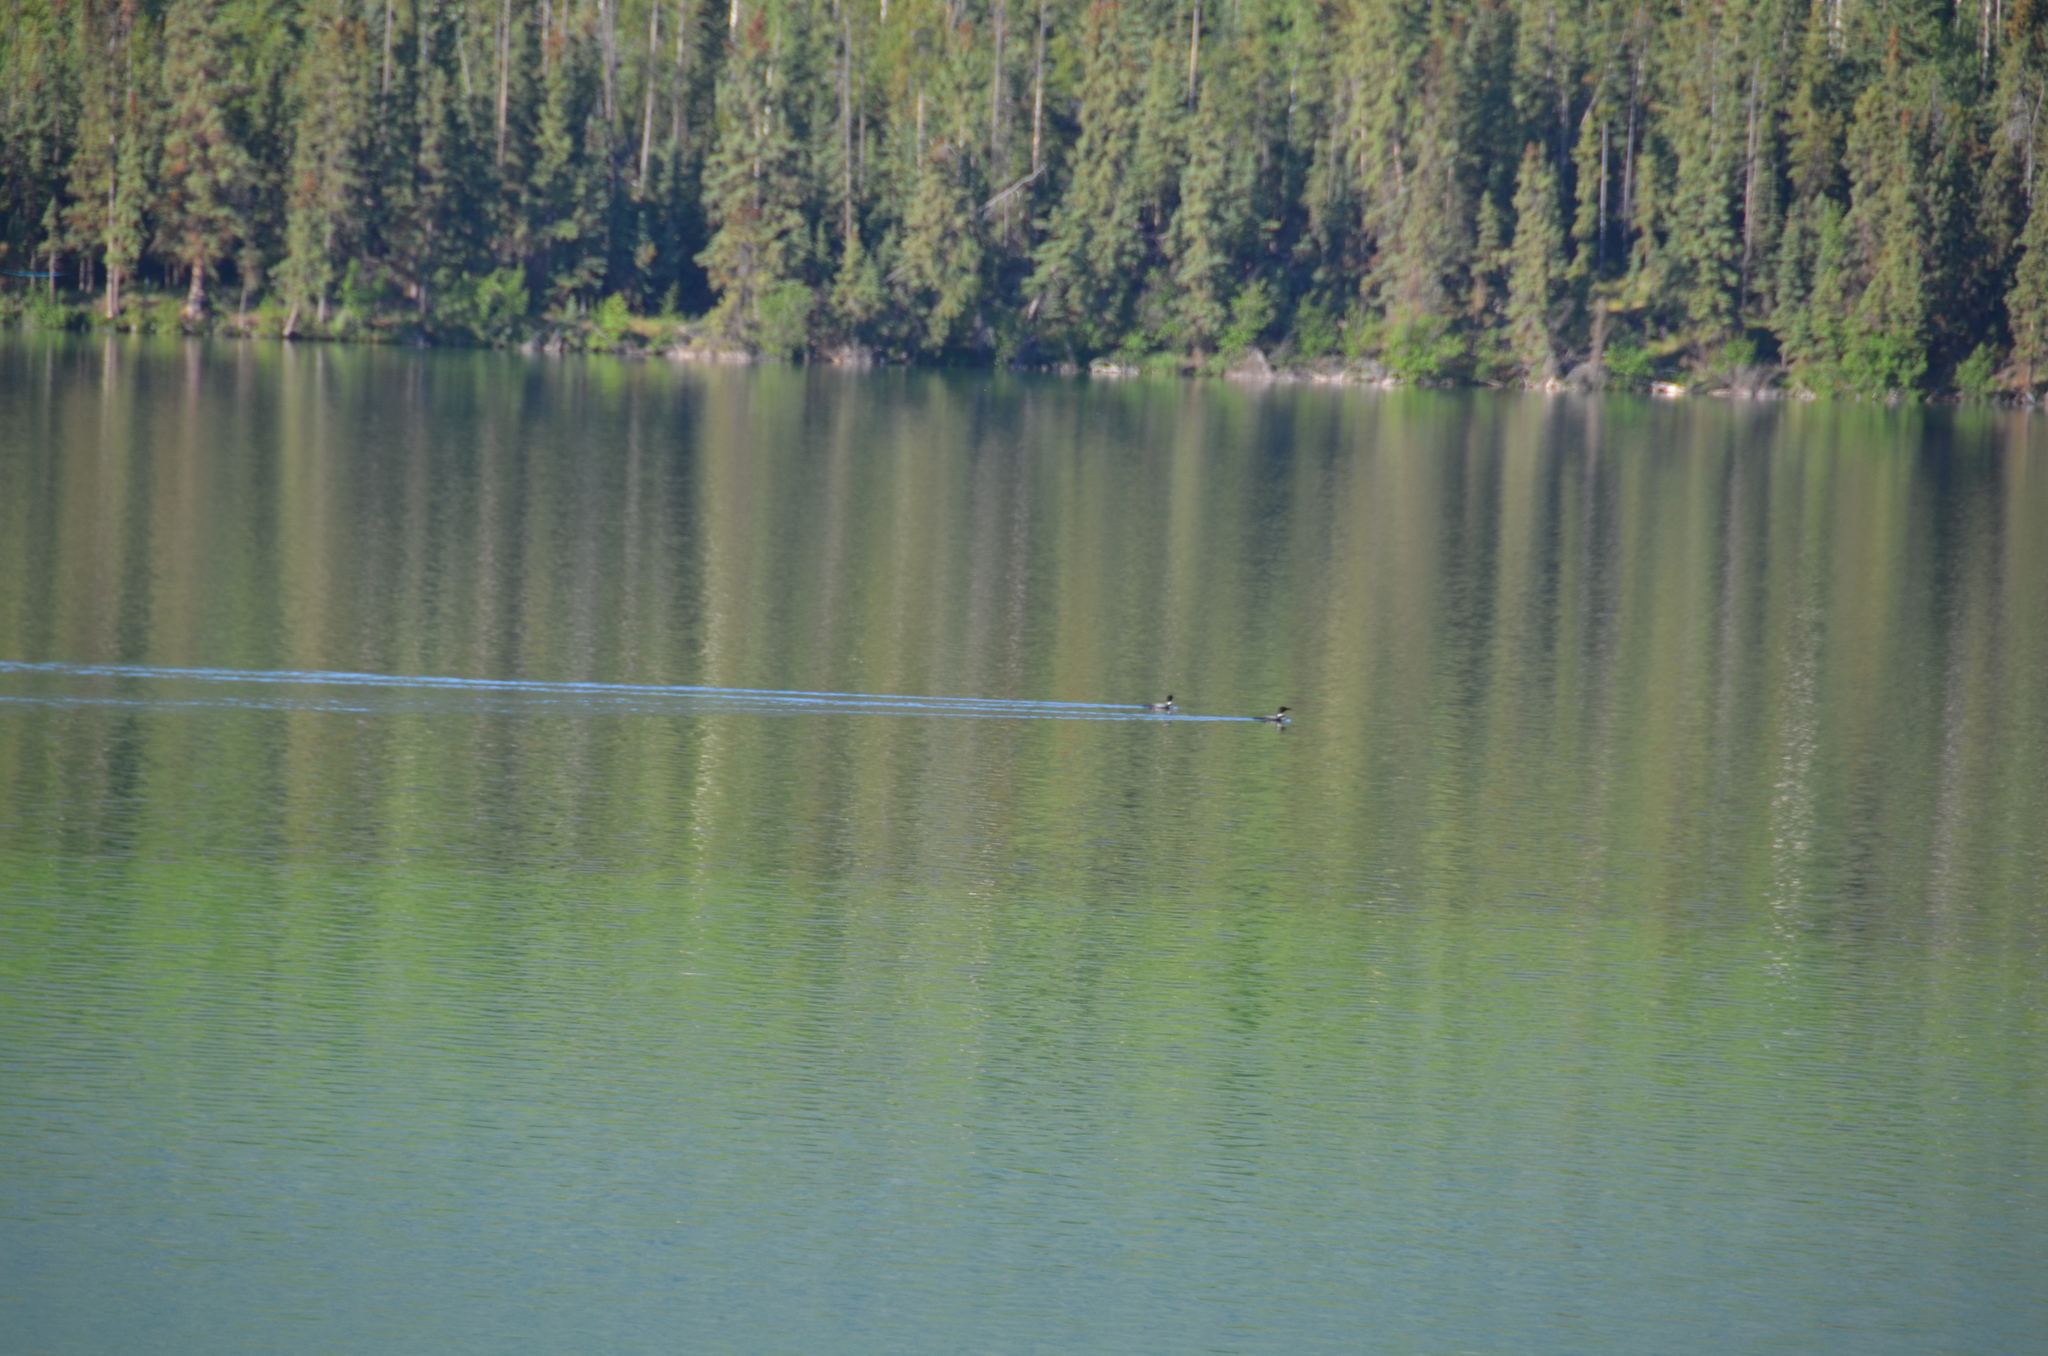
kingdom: Animalia
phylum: Chordata
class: Aves
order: Gaviiformes
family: Gaviidae
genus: Gavia
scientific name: Gavia immer
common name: Common loon
